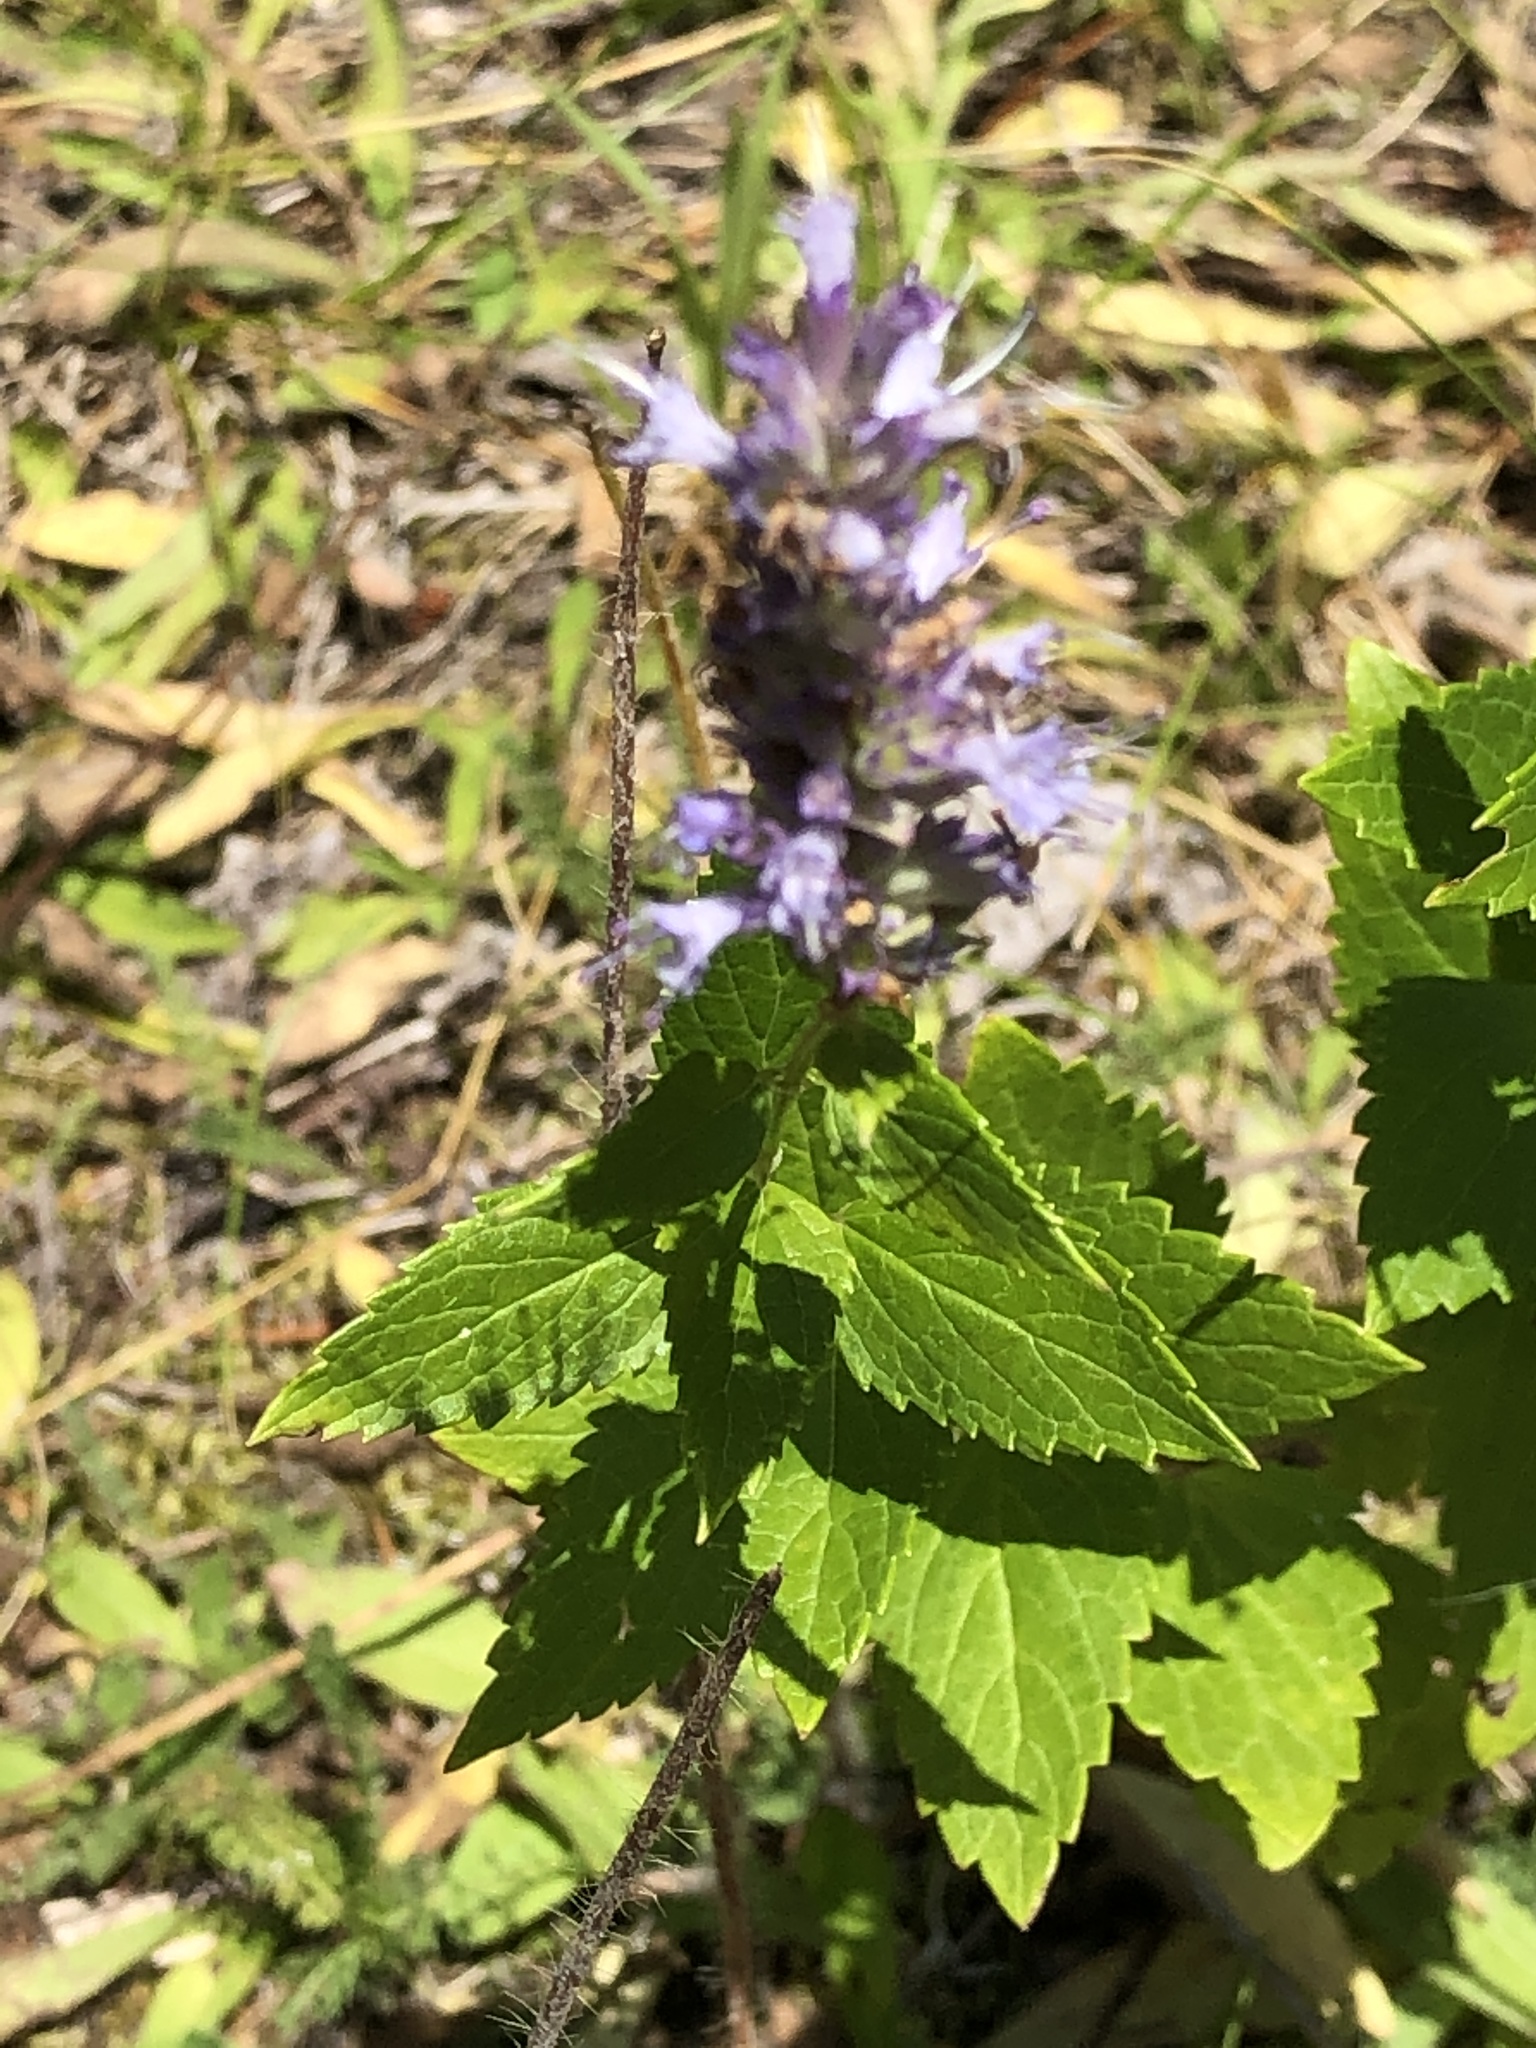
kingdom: Plantae
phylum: Tracheophyta
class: Magnoliopsida
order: Lamiales
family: Lamiaceae
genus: Agastache
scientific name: Agastache foeniculum
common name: Anise hyssop
